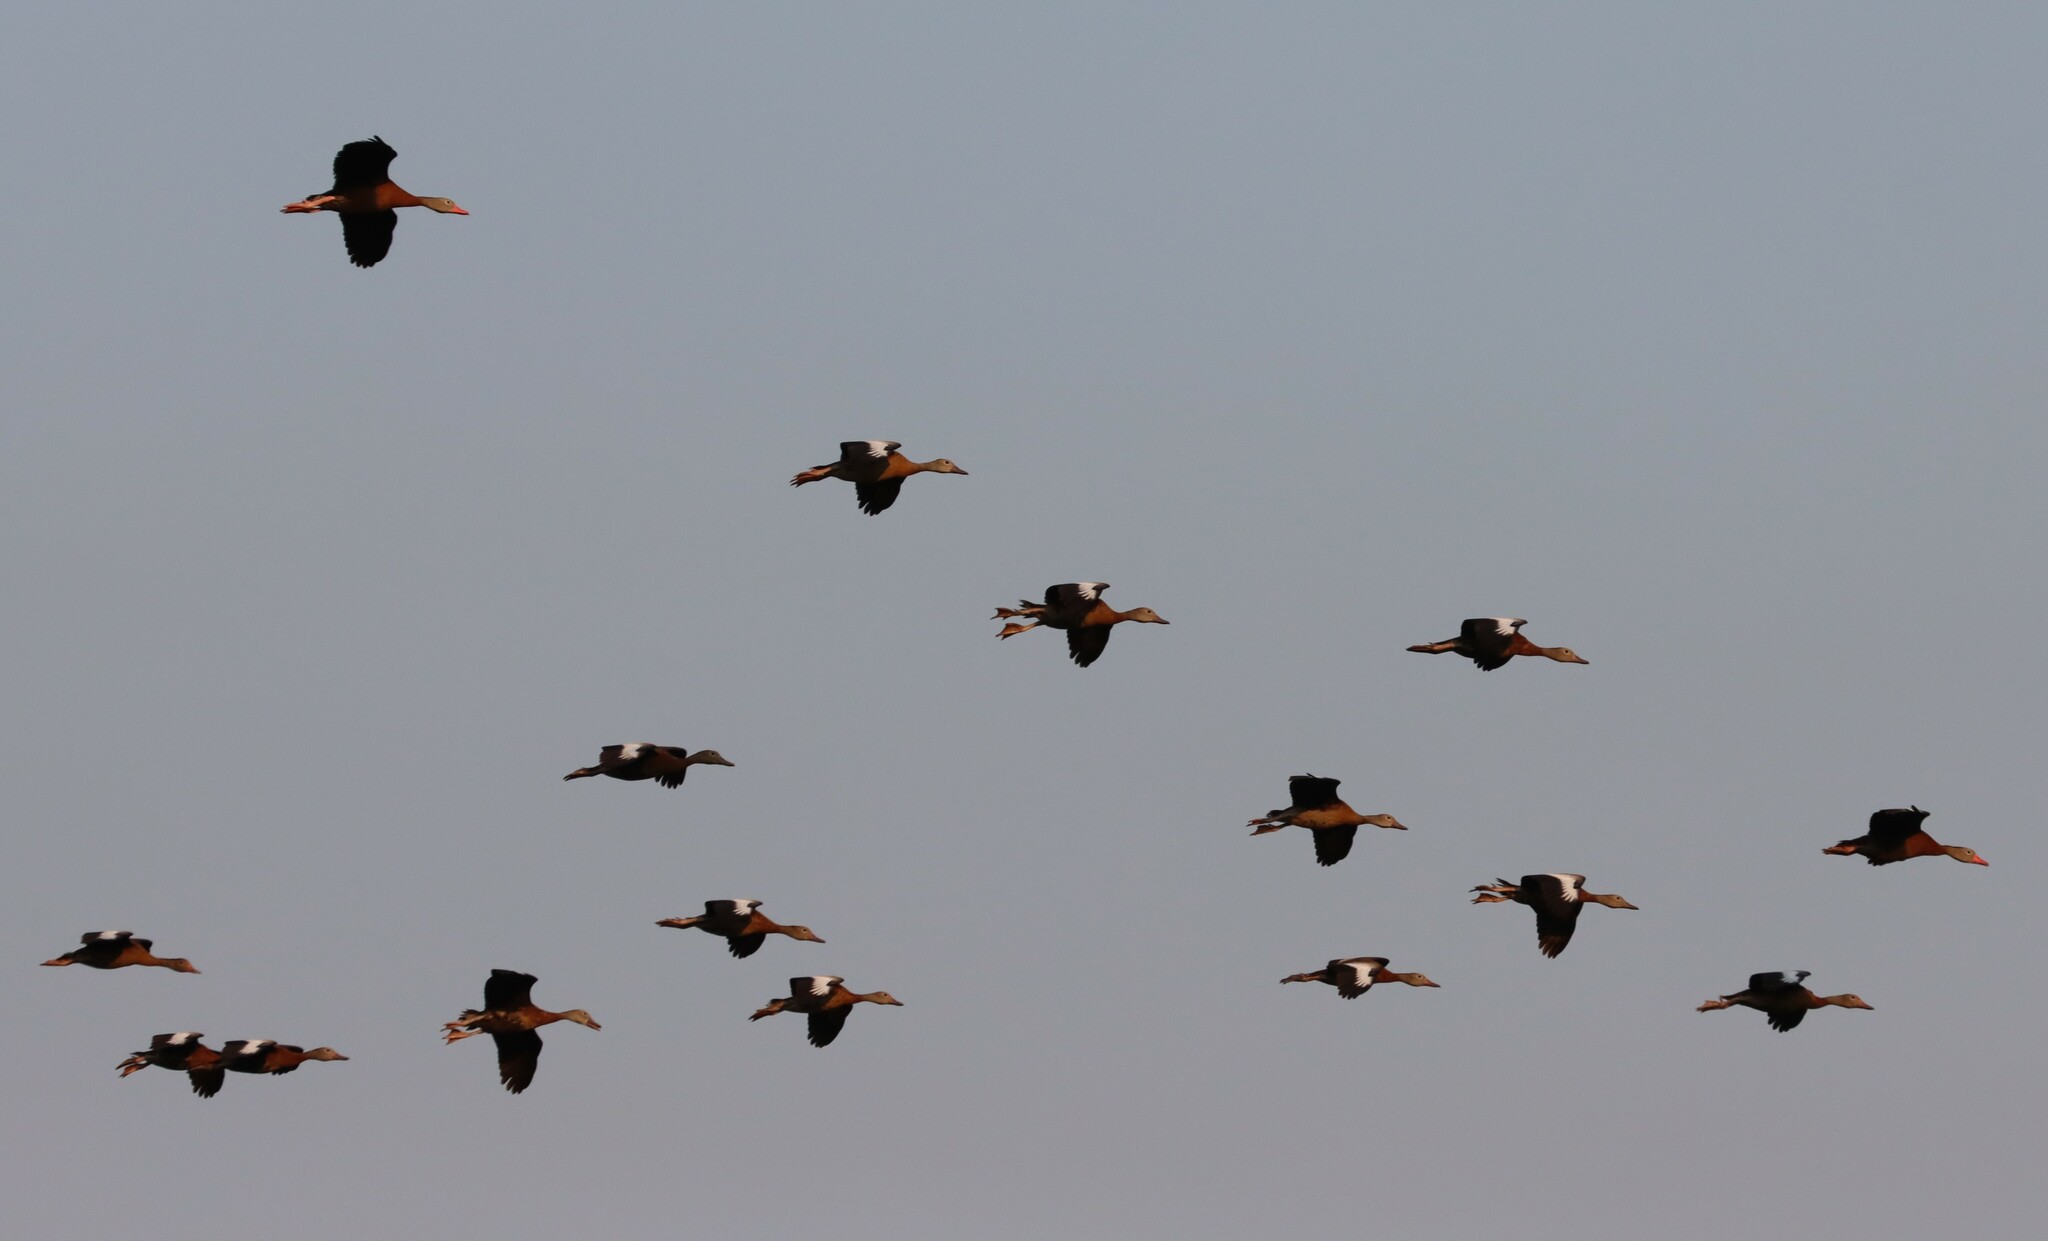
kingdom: Animalia
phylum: Chordata
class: Aves
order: Anseriformes
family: Anatidae
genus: Dendrocygna
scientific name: Dendrocygna autumnalis
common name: Black-bellied whistling duck
